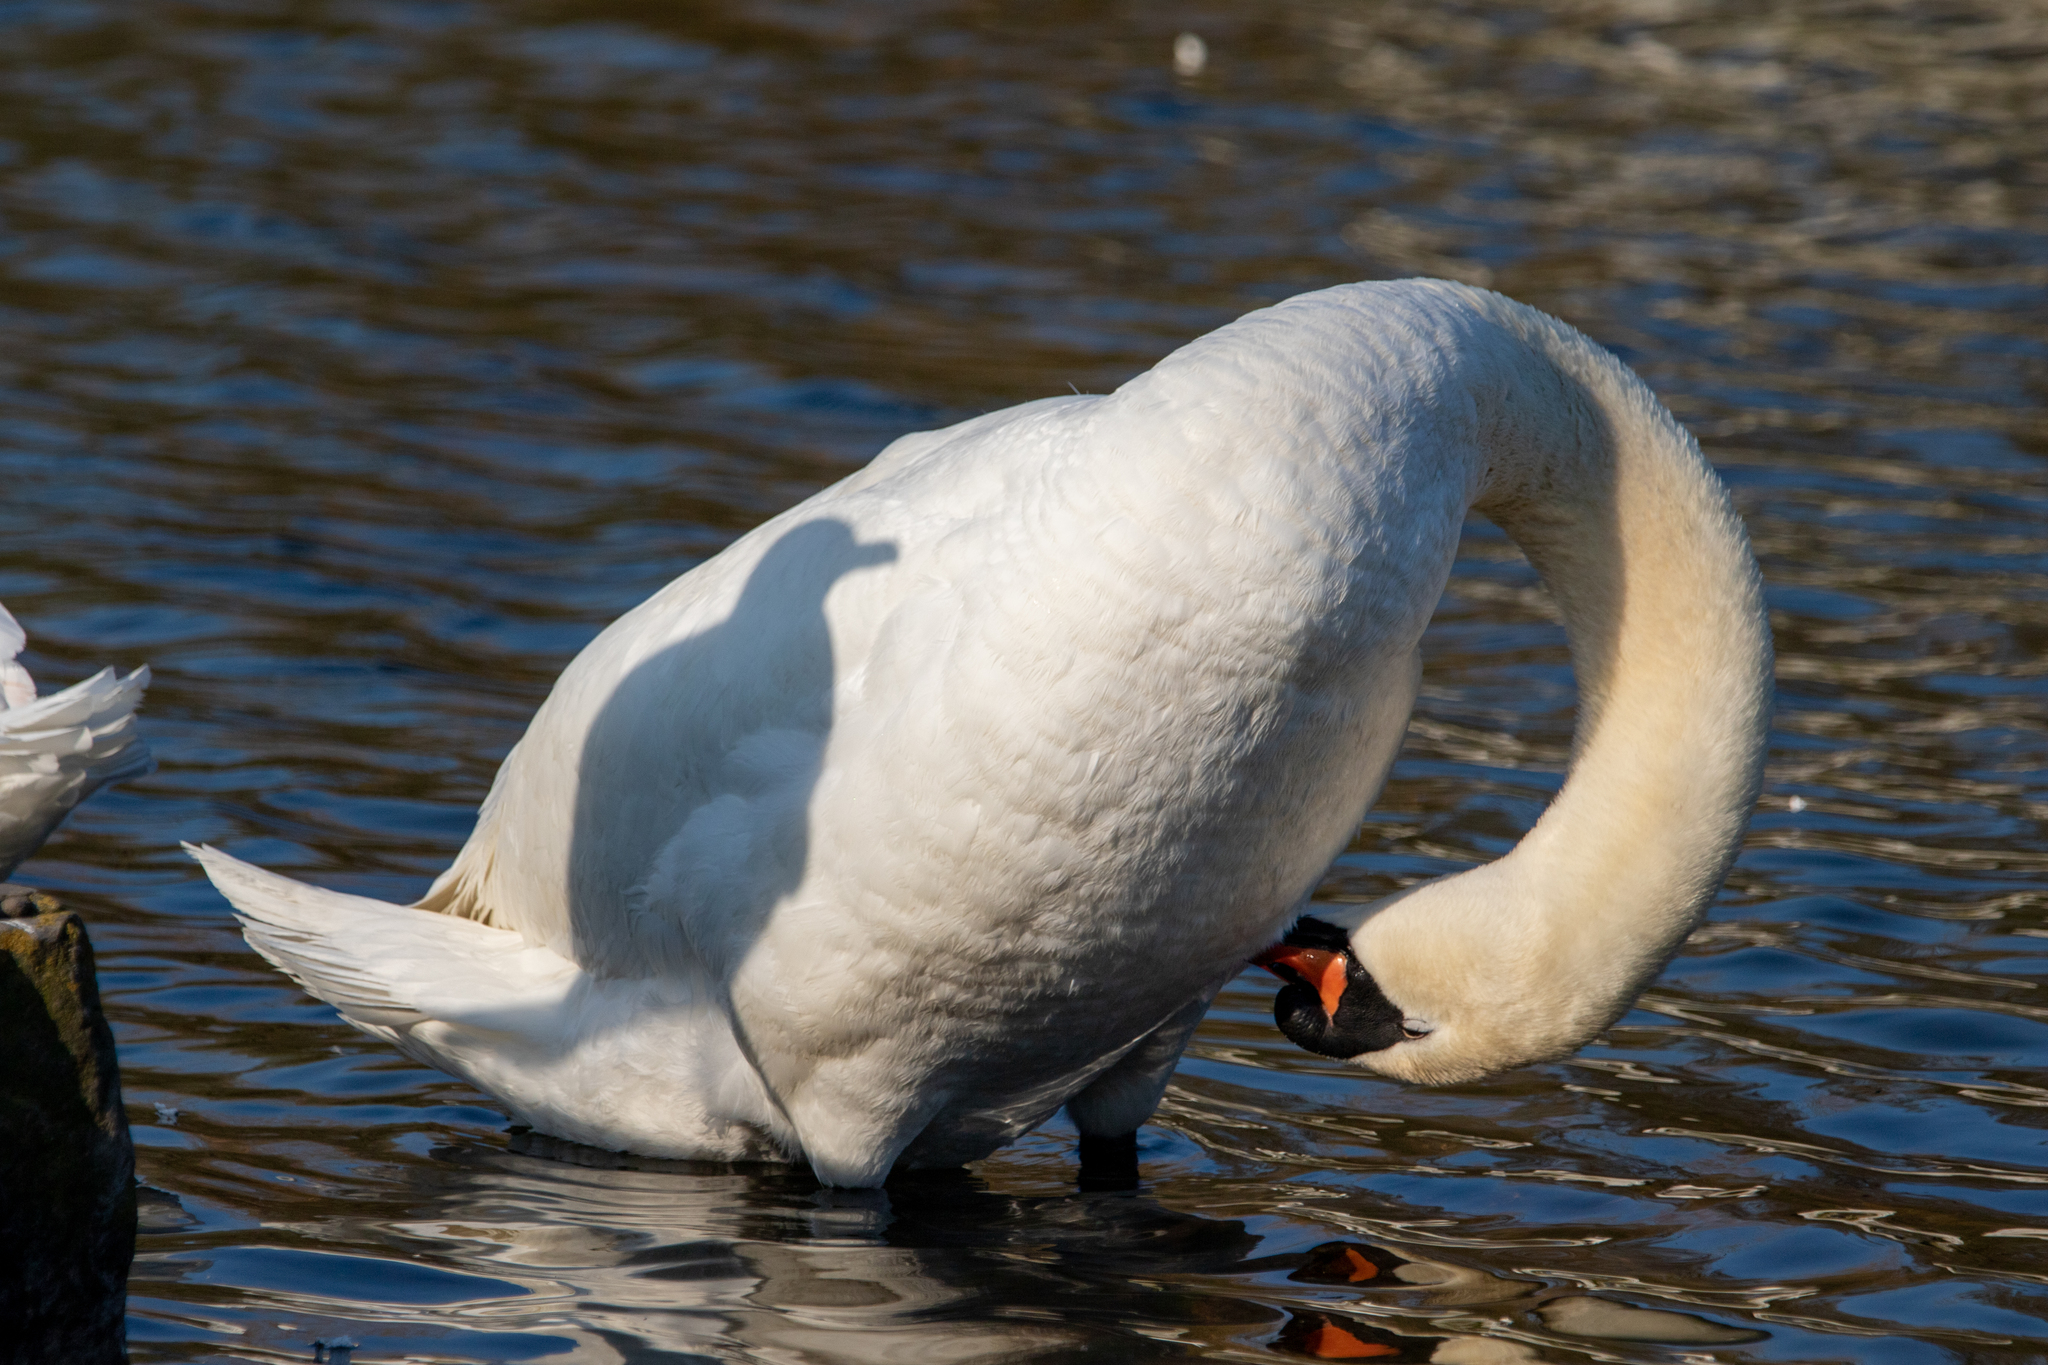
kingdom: Animalia
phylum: Chordata
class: Aves
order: Anseriformes
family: Anatidae
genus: Cygnus
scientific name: Cygnus olor
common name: Mute swan
